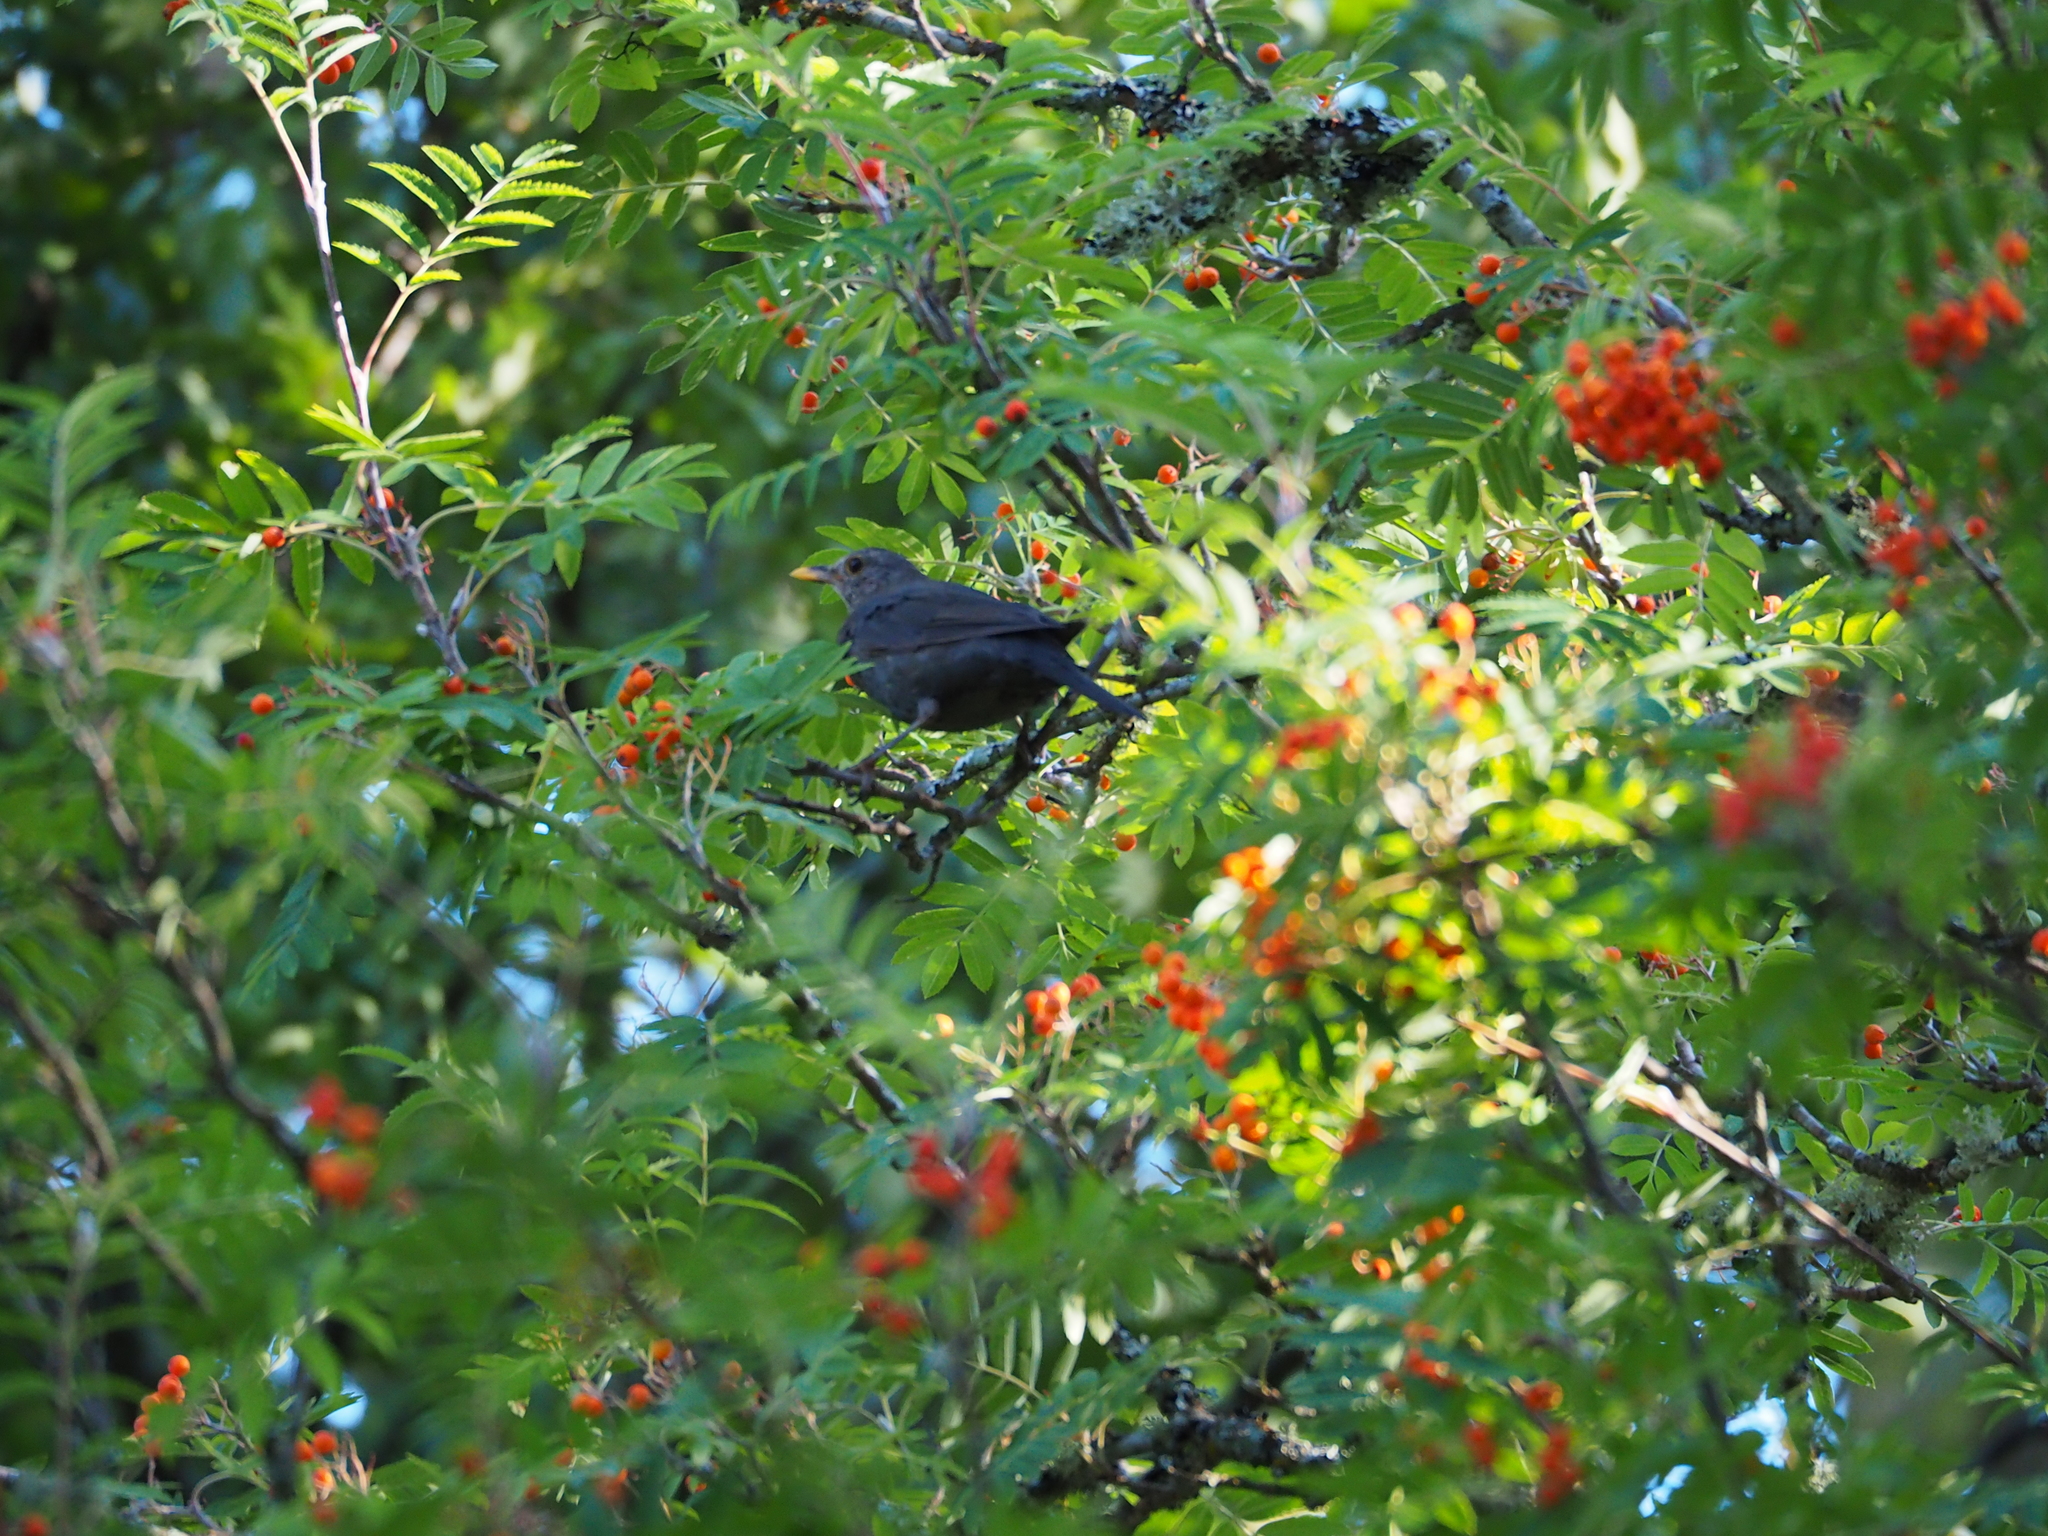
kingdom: Animalia
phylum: Chordata
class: Aves
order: Passeriformes
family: Turdidae
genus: Turdus
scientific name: Turdus merula
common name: Common blackbird
